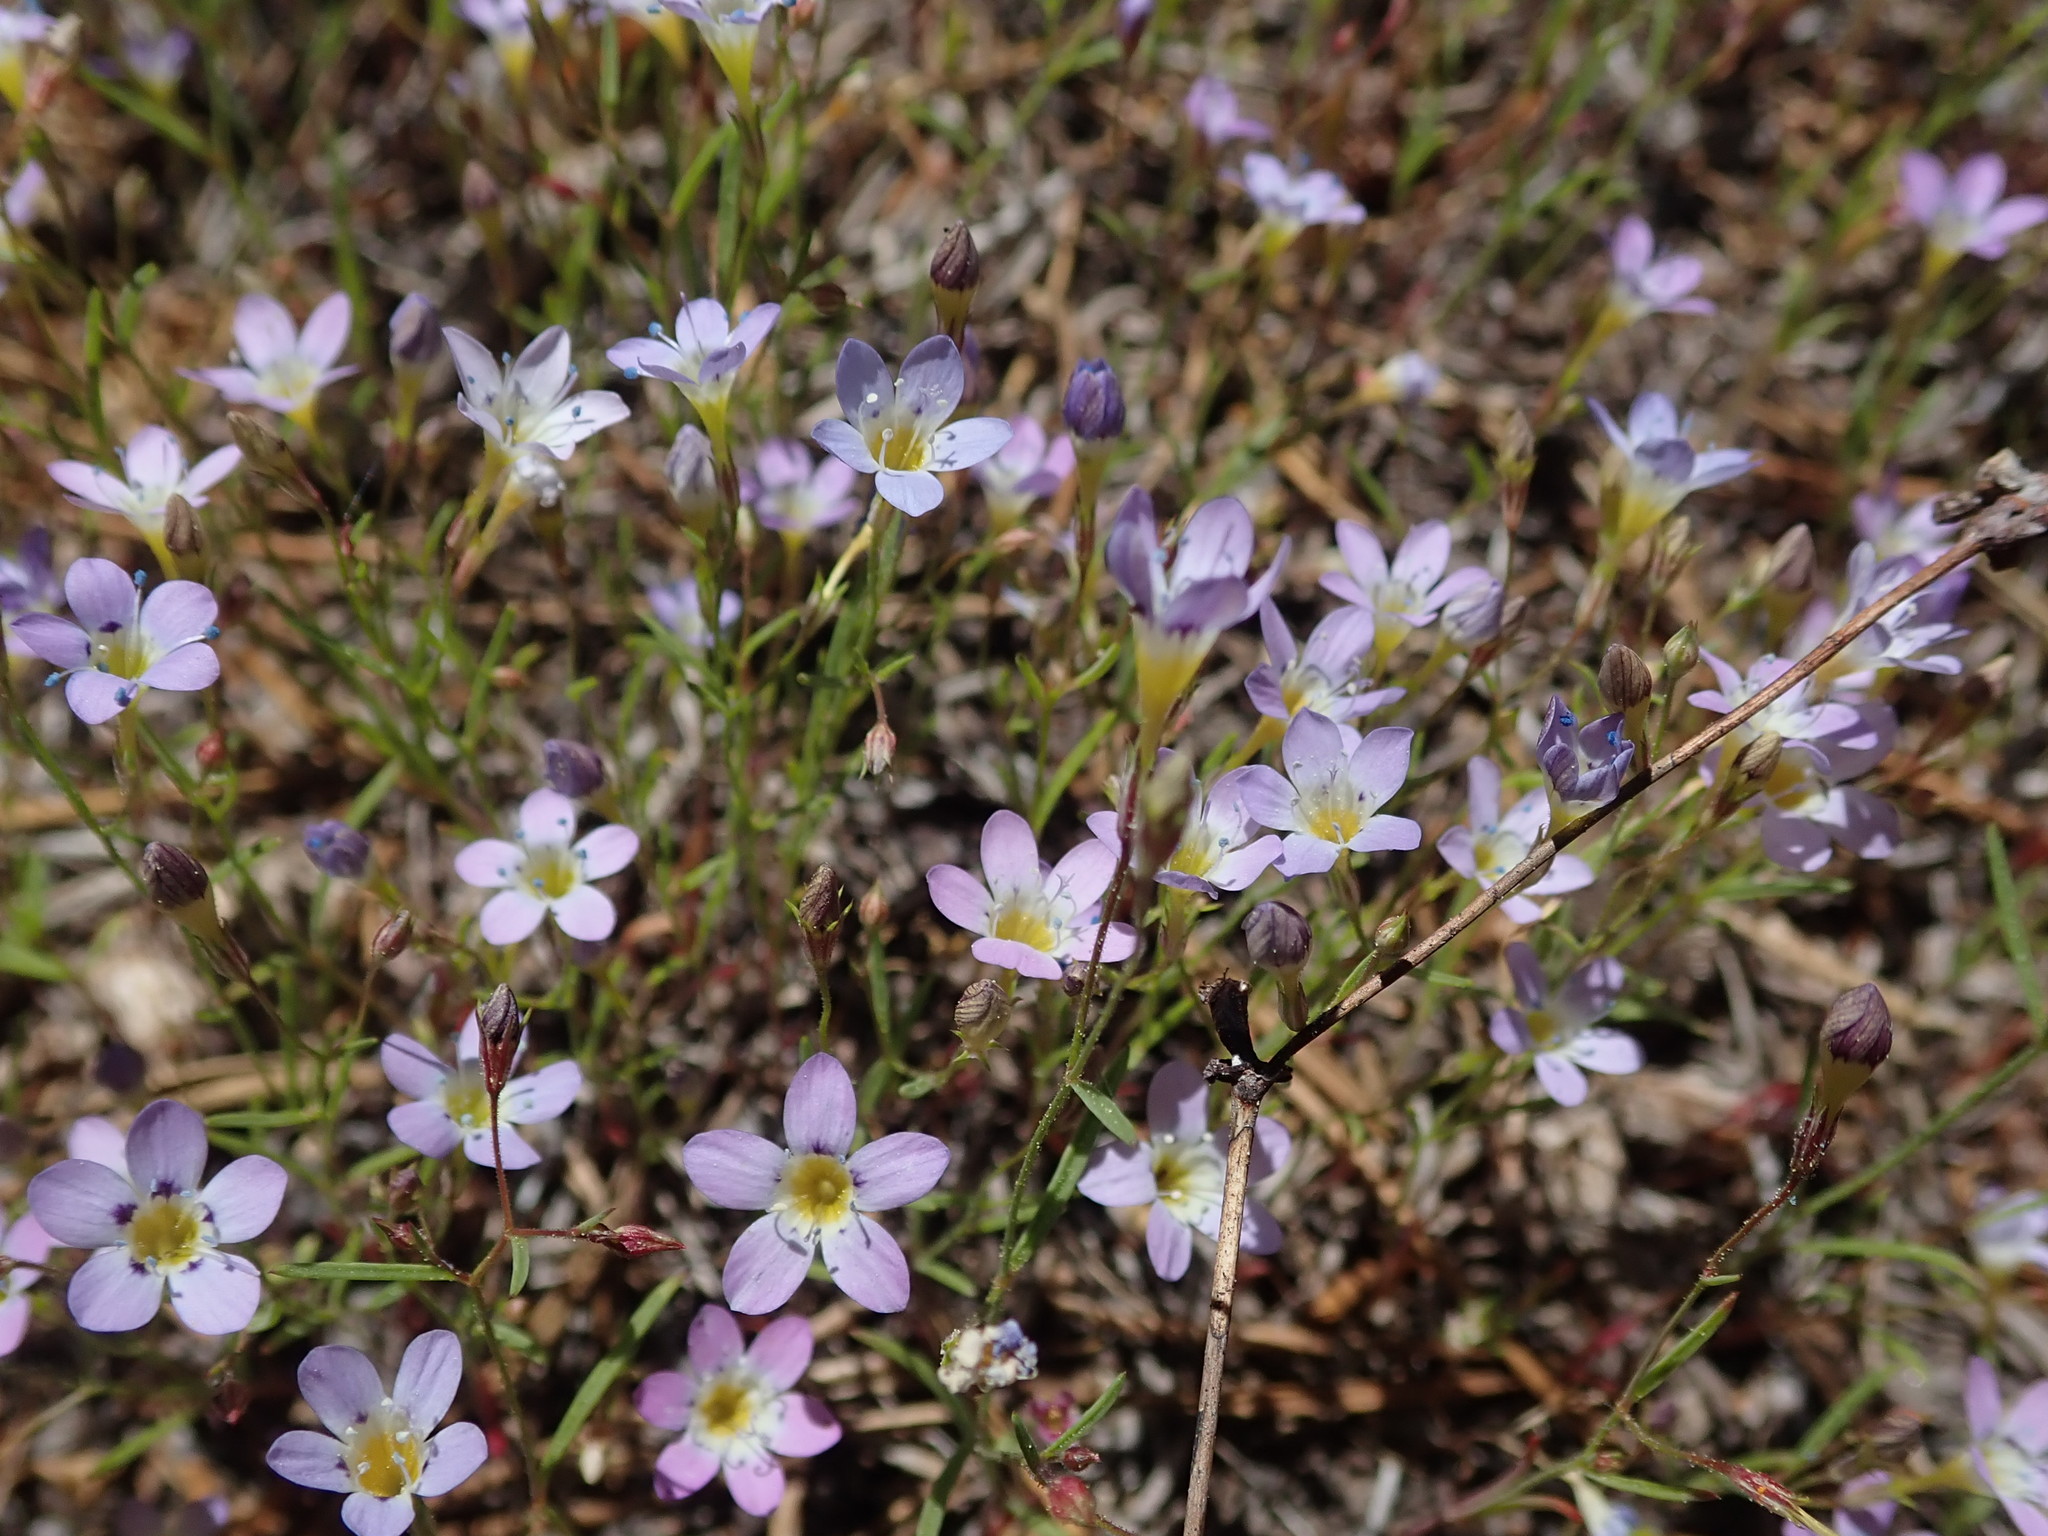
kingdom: Plantae
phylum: Tracheophyta
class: Magnoliopsida
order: Ericales
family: Polemoniaceae
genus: Navarretia
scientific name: Navarretia leptalea
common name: Bridges' pincushionplant
